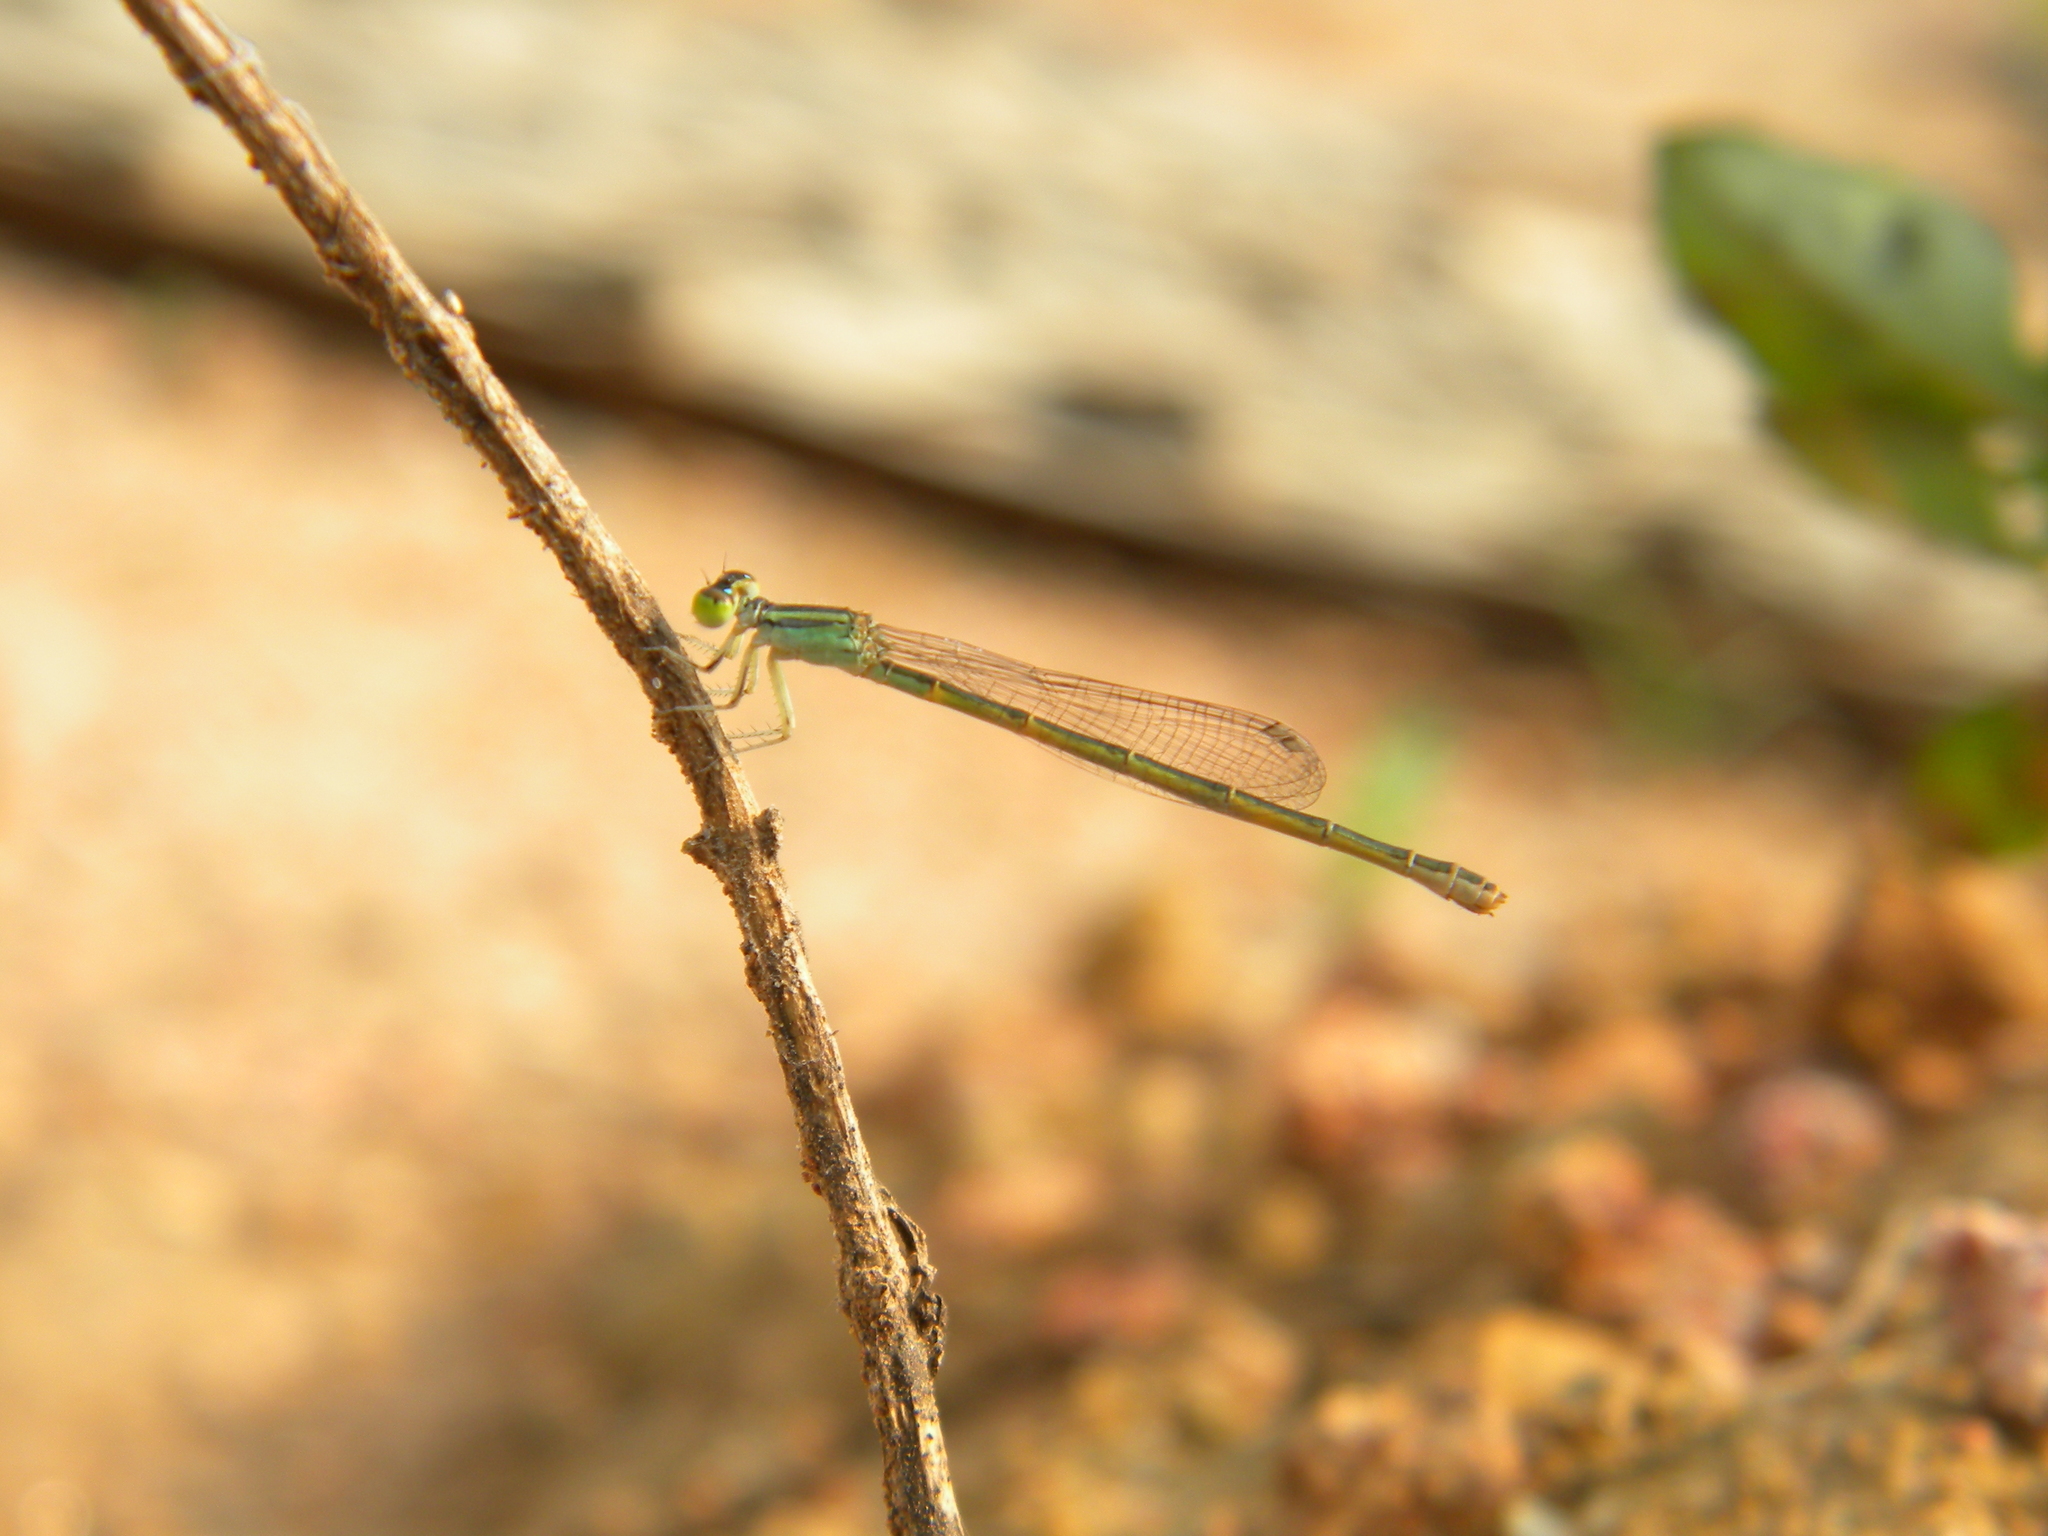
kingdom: Animalia
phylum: Arthropoda
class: Insecta
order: Odonata
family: Coenagrionidae
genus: Ischnura
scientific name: Ischnura rubilio
